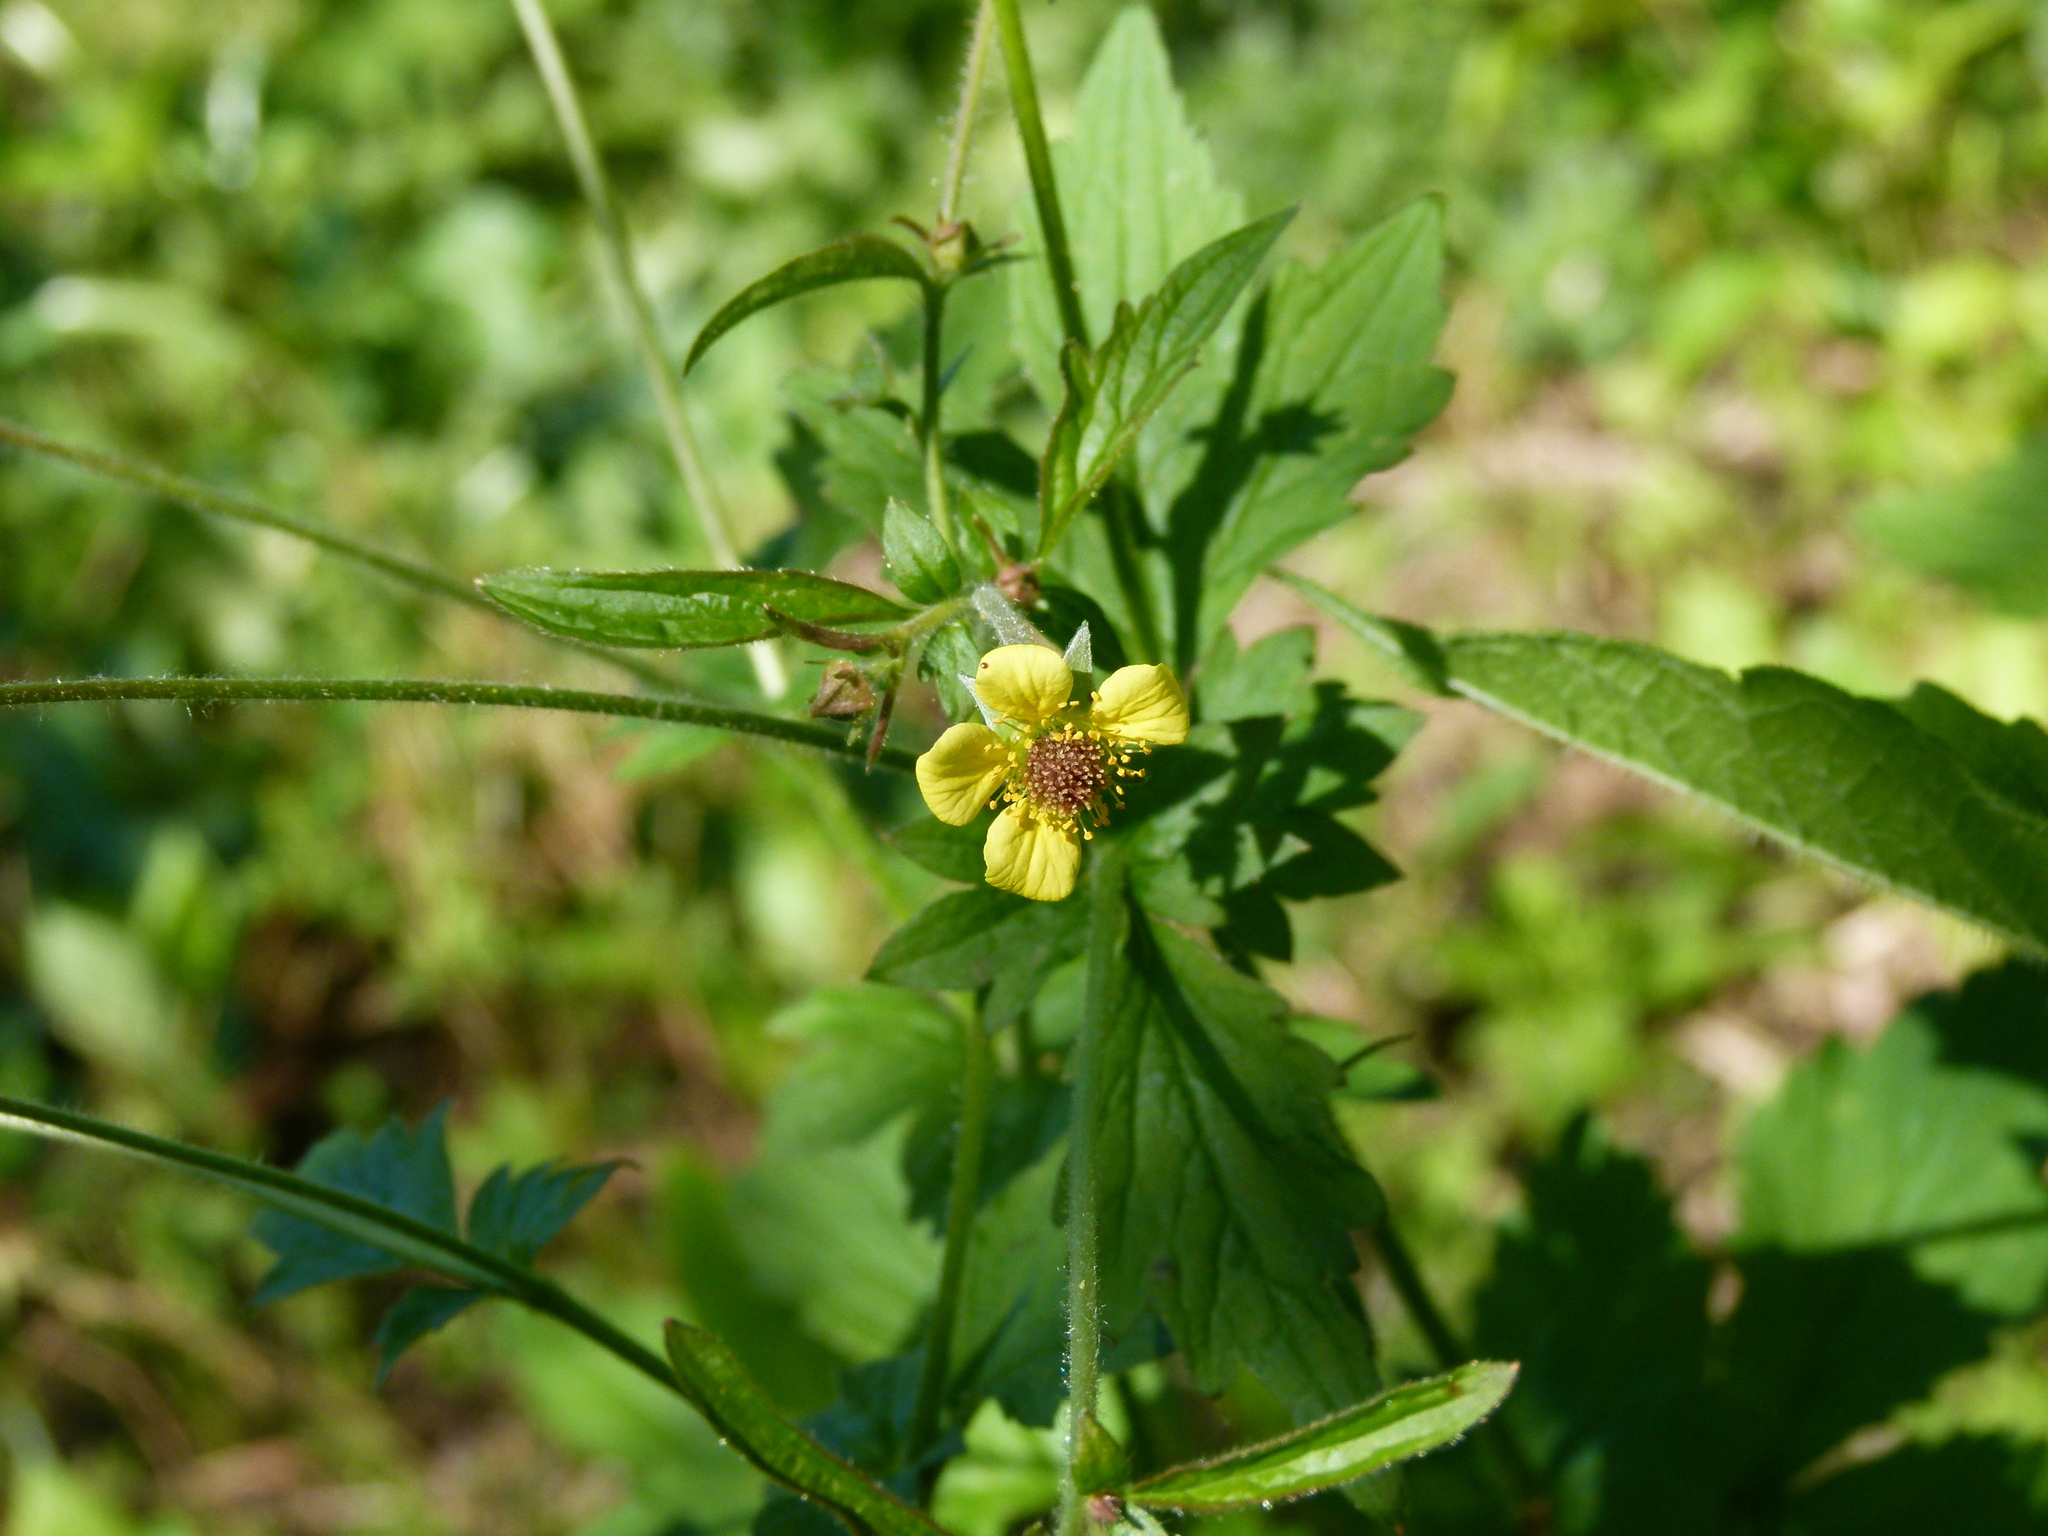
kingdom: Plantae
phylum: Tracheophyta
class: Magnoliopsida
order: Rosales
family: Rosaceae
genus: Geum
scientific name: Geum
